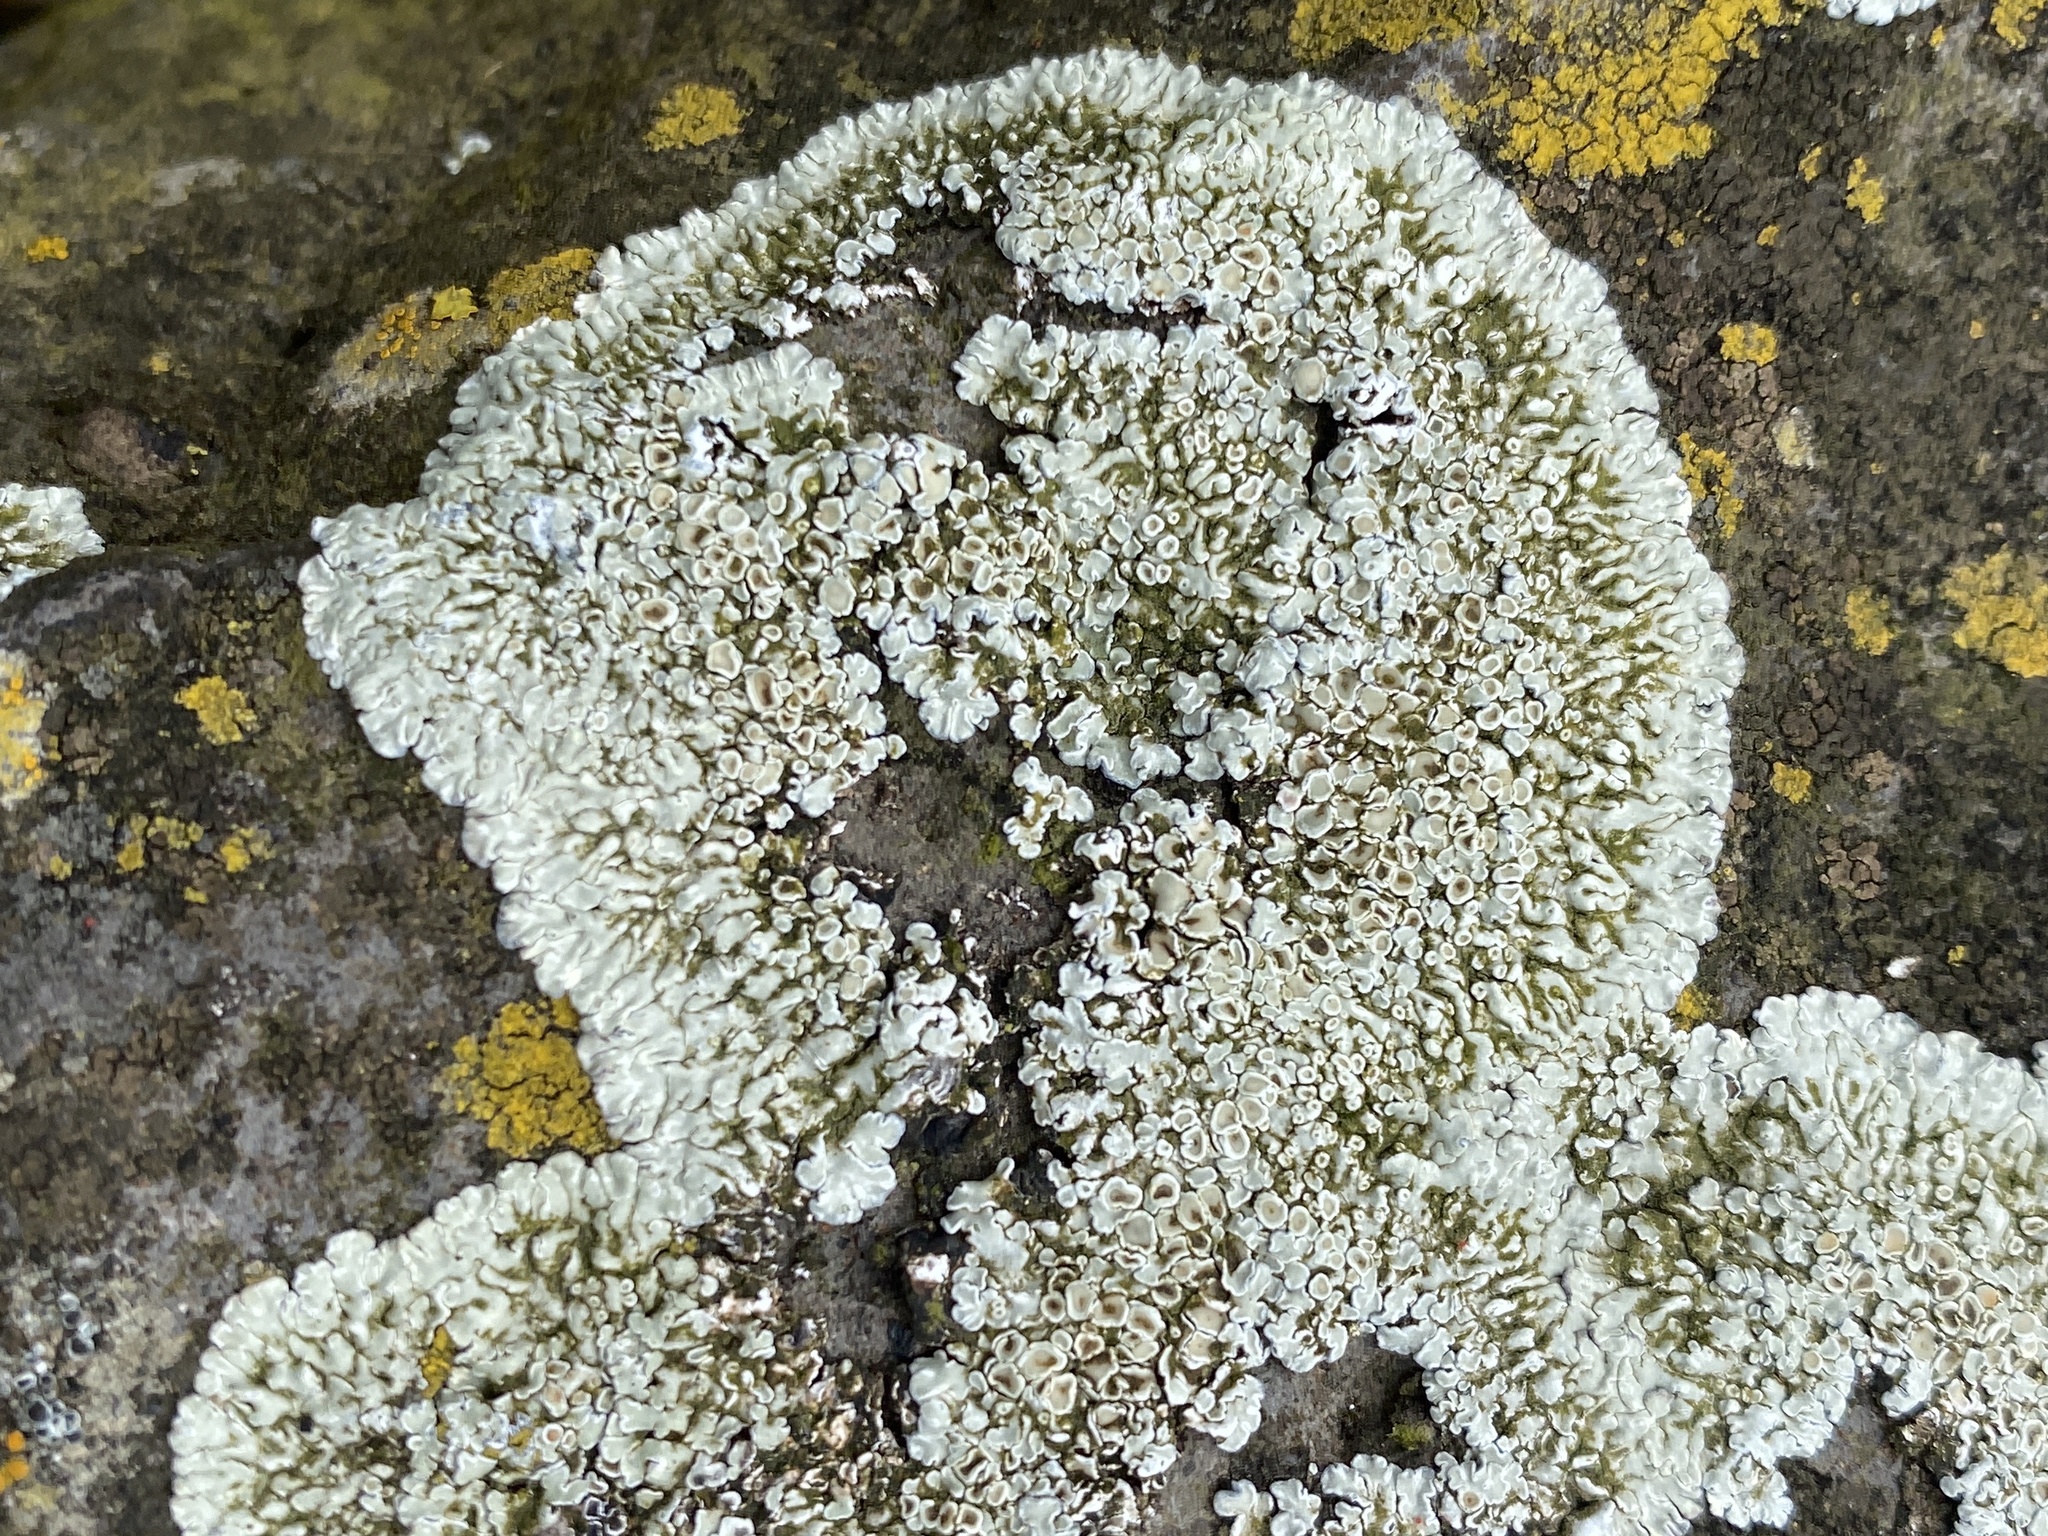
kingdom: Fungi
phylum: Ascomycota
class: Lecanoromycetes
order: Lecanorales
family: Lecanoraceae
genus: Protoparmeliopsis
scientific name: Protoparmeliopsis muralis
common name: Stonewall rim lichen
